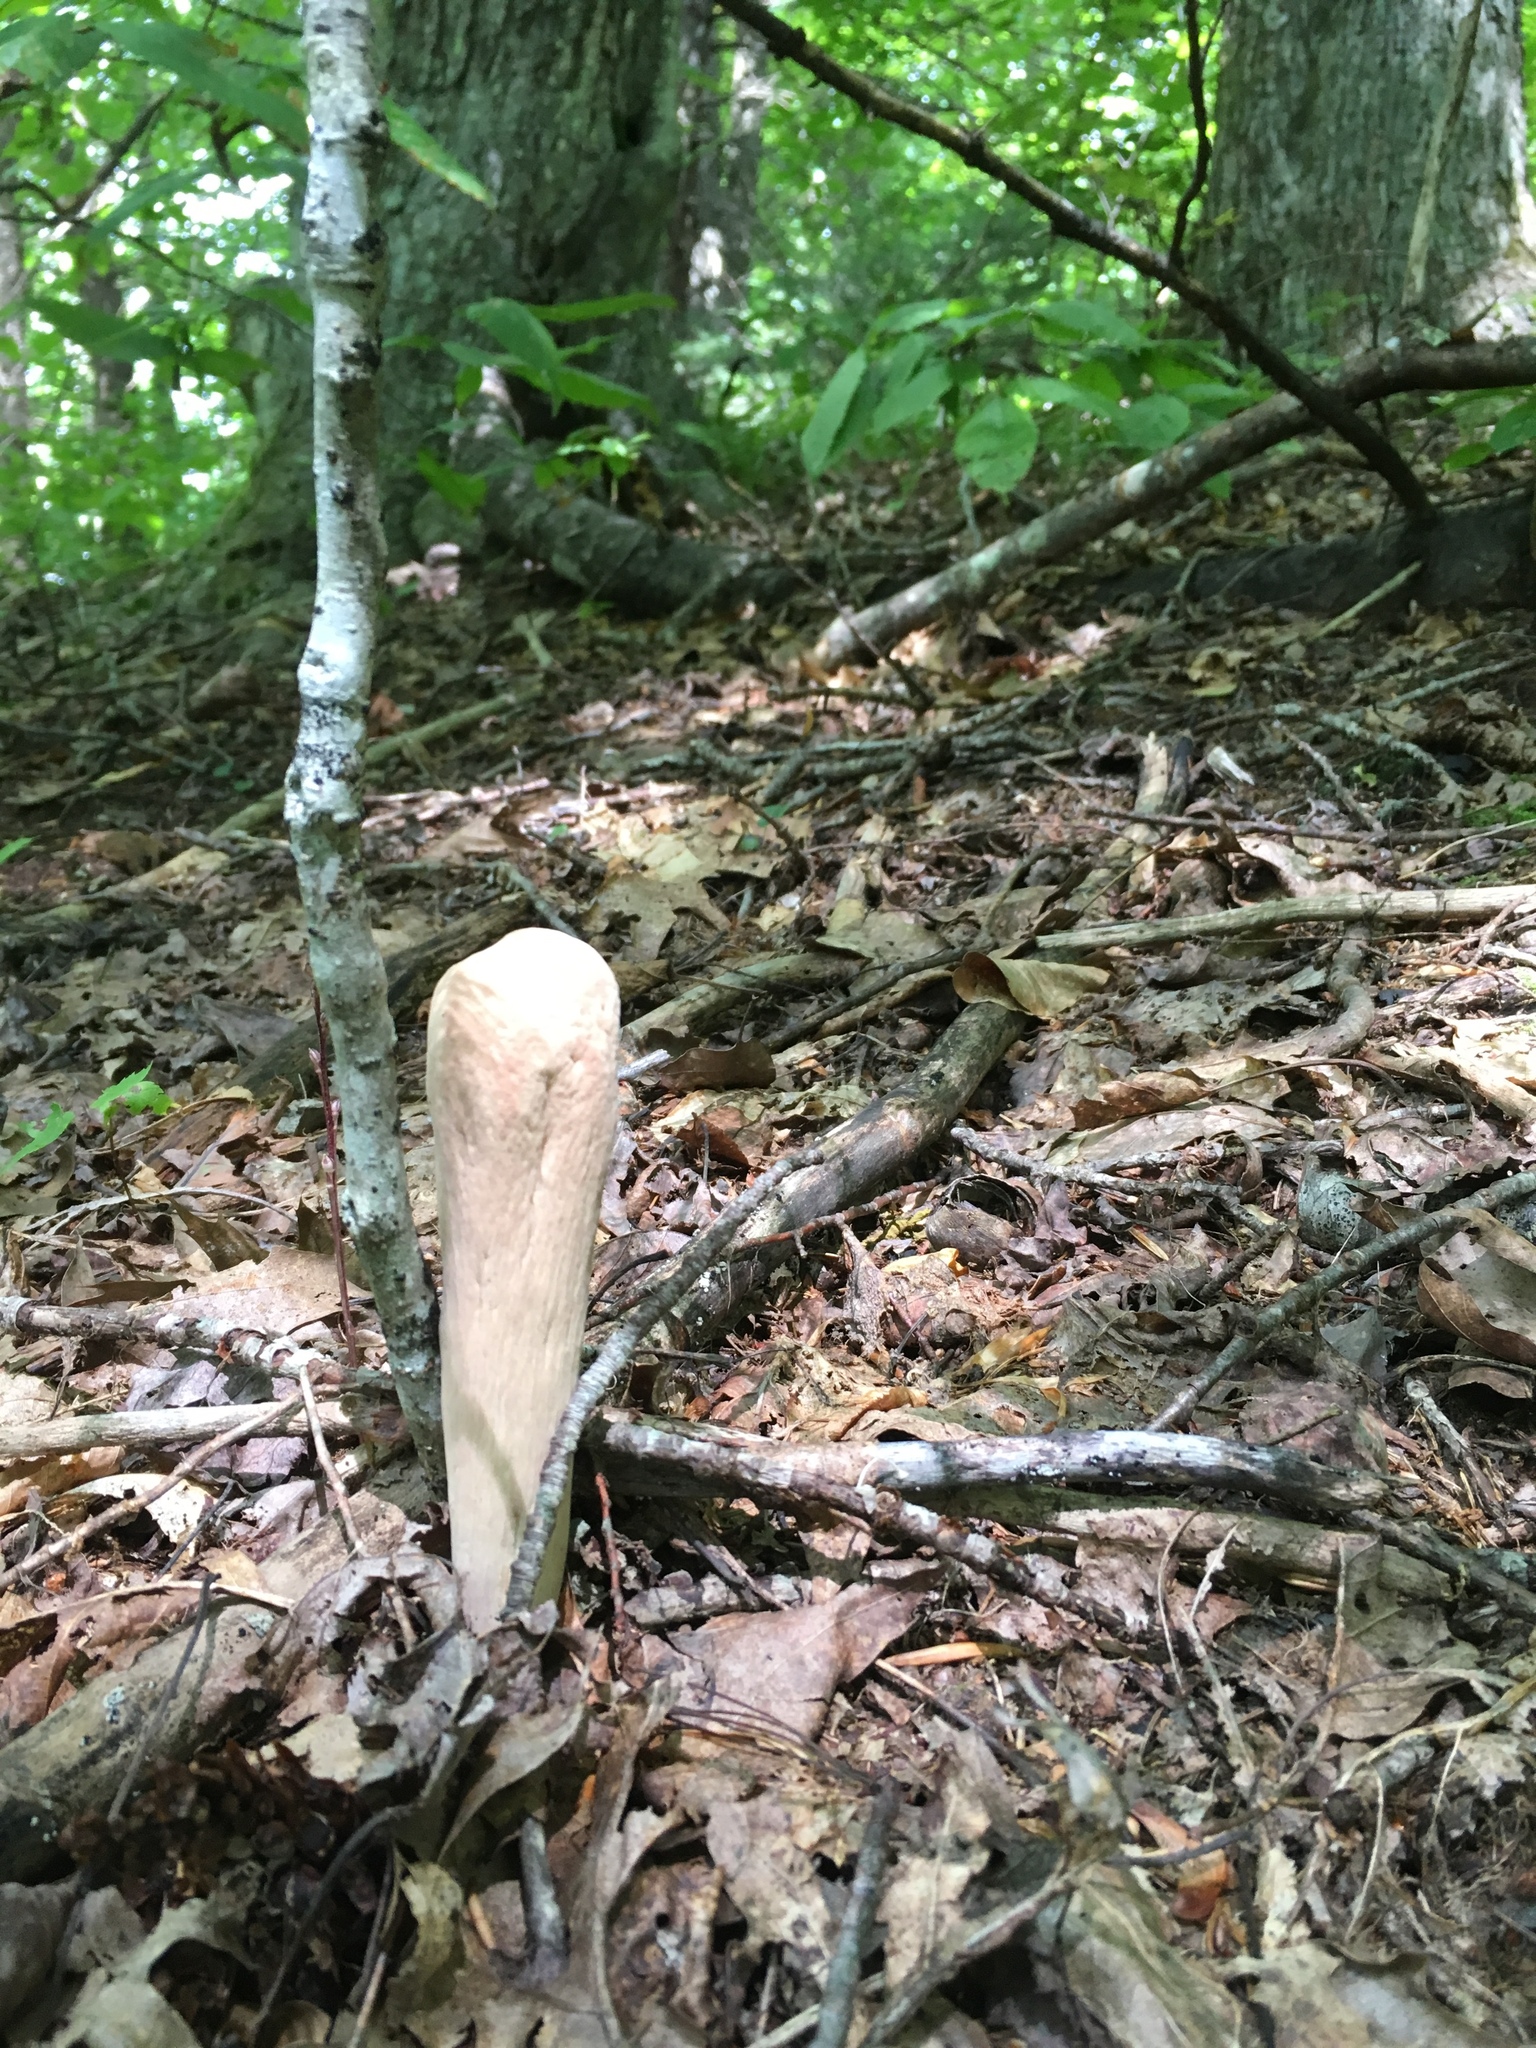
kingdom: Fungi
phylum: Basidiomycota
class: Agaricomycetes
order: Gomphales
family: Clavariadelphaceae
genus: Clavariadelphus
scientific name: Clavariadelphus pistillaris
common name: Giant club
